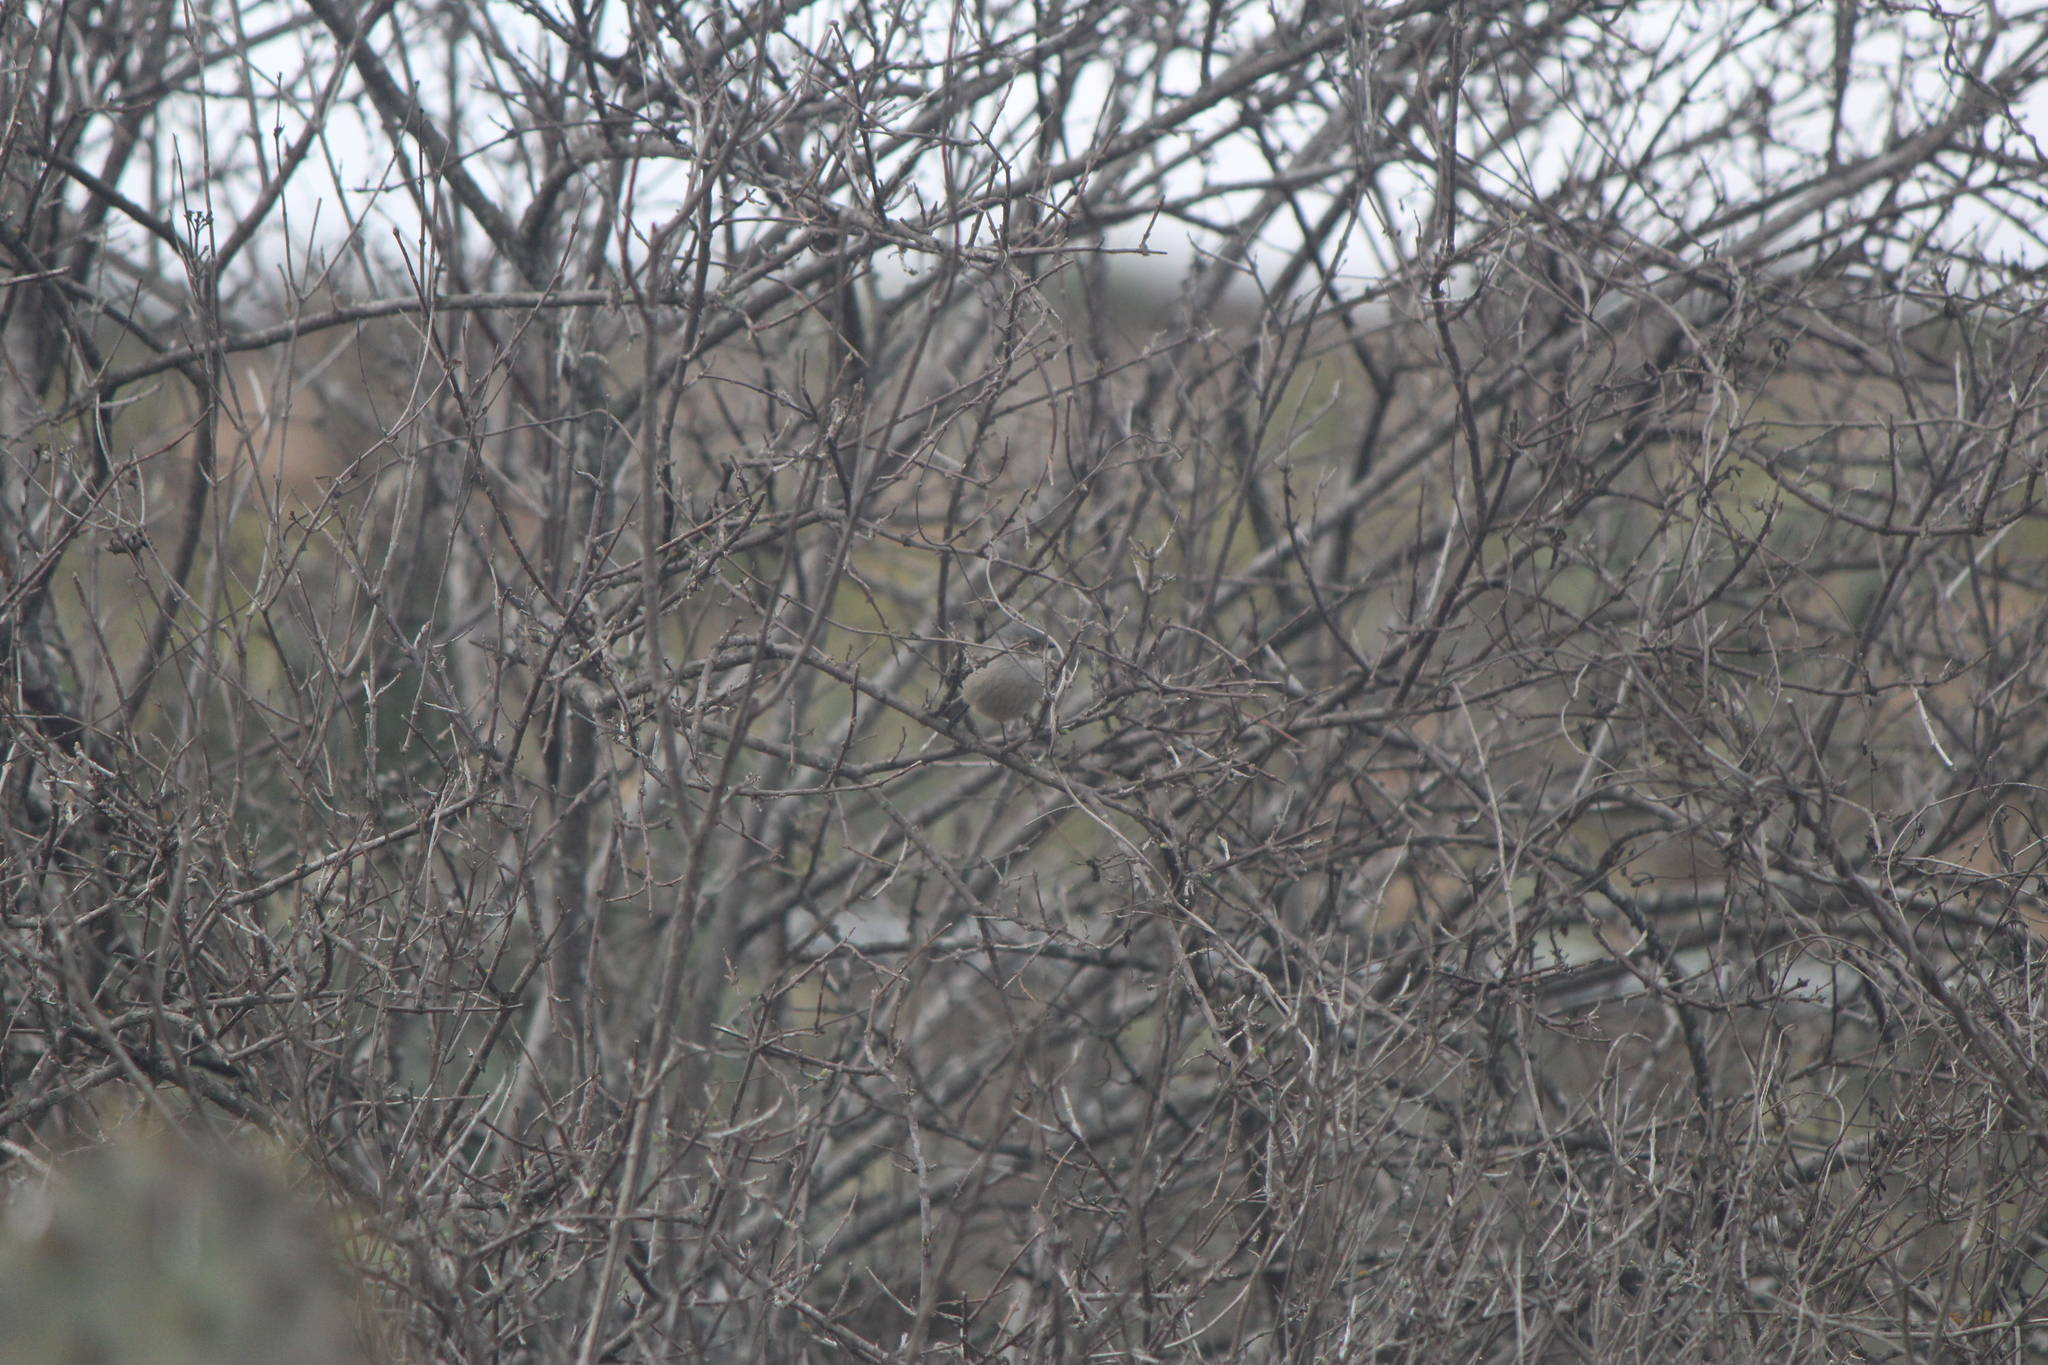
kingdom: Animalia
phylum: Chordata
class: Aves
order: Passeriformes
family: Aegithalidae
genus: Psaltriparus
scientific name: Psaltriparus minimus
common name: American bushtit
